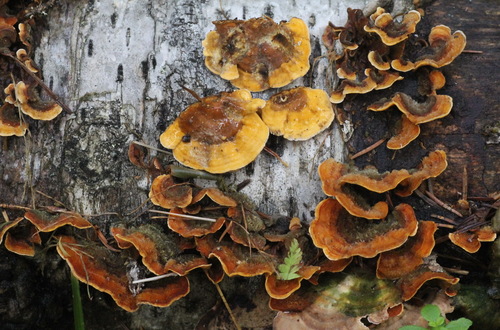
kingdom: Fungi
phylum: Basidiomycota
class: Agaricomycetes
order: Russulales
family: Stereaceae
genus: Stereum
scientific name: Stereum hirsutum
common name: Hairy curtain crust
